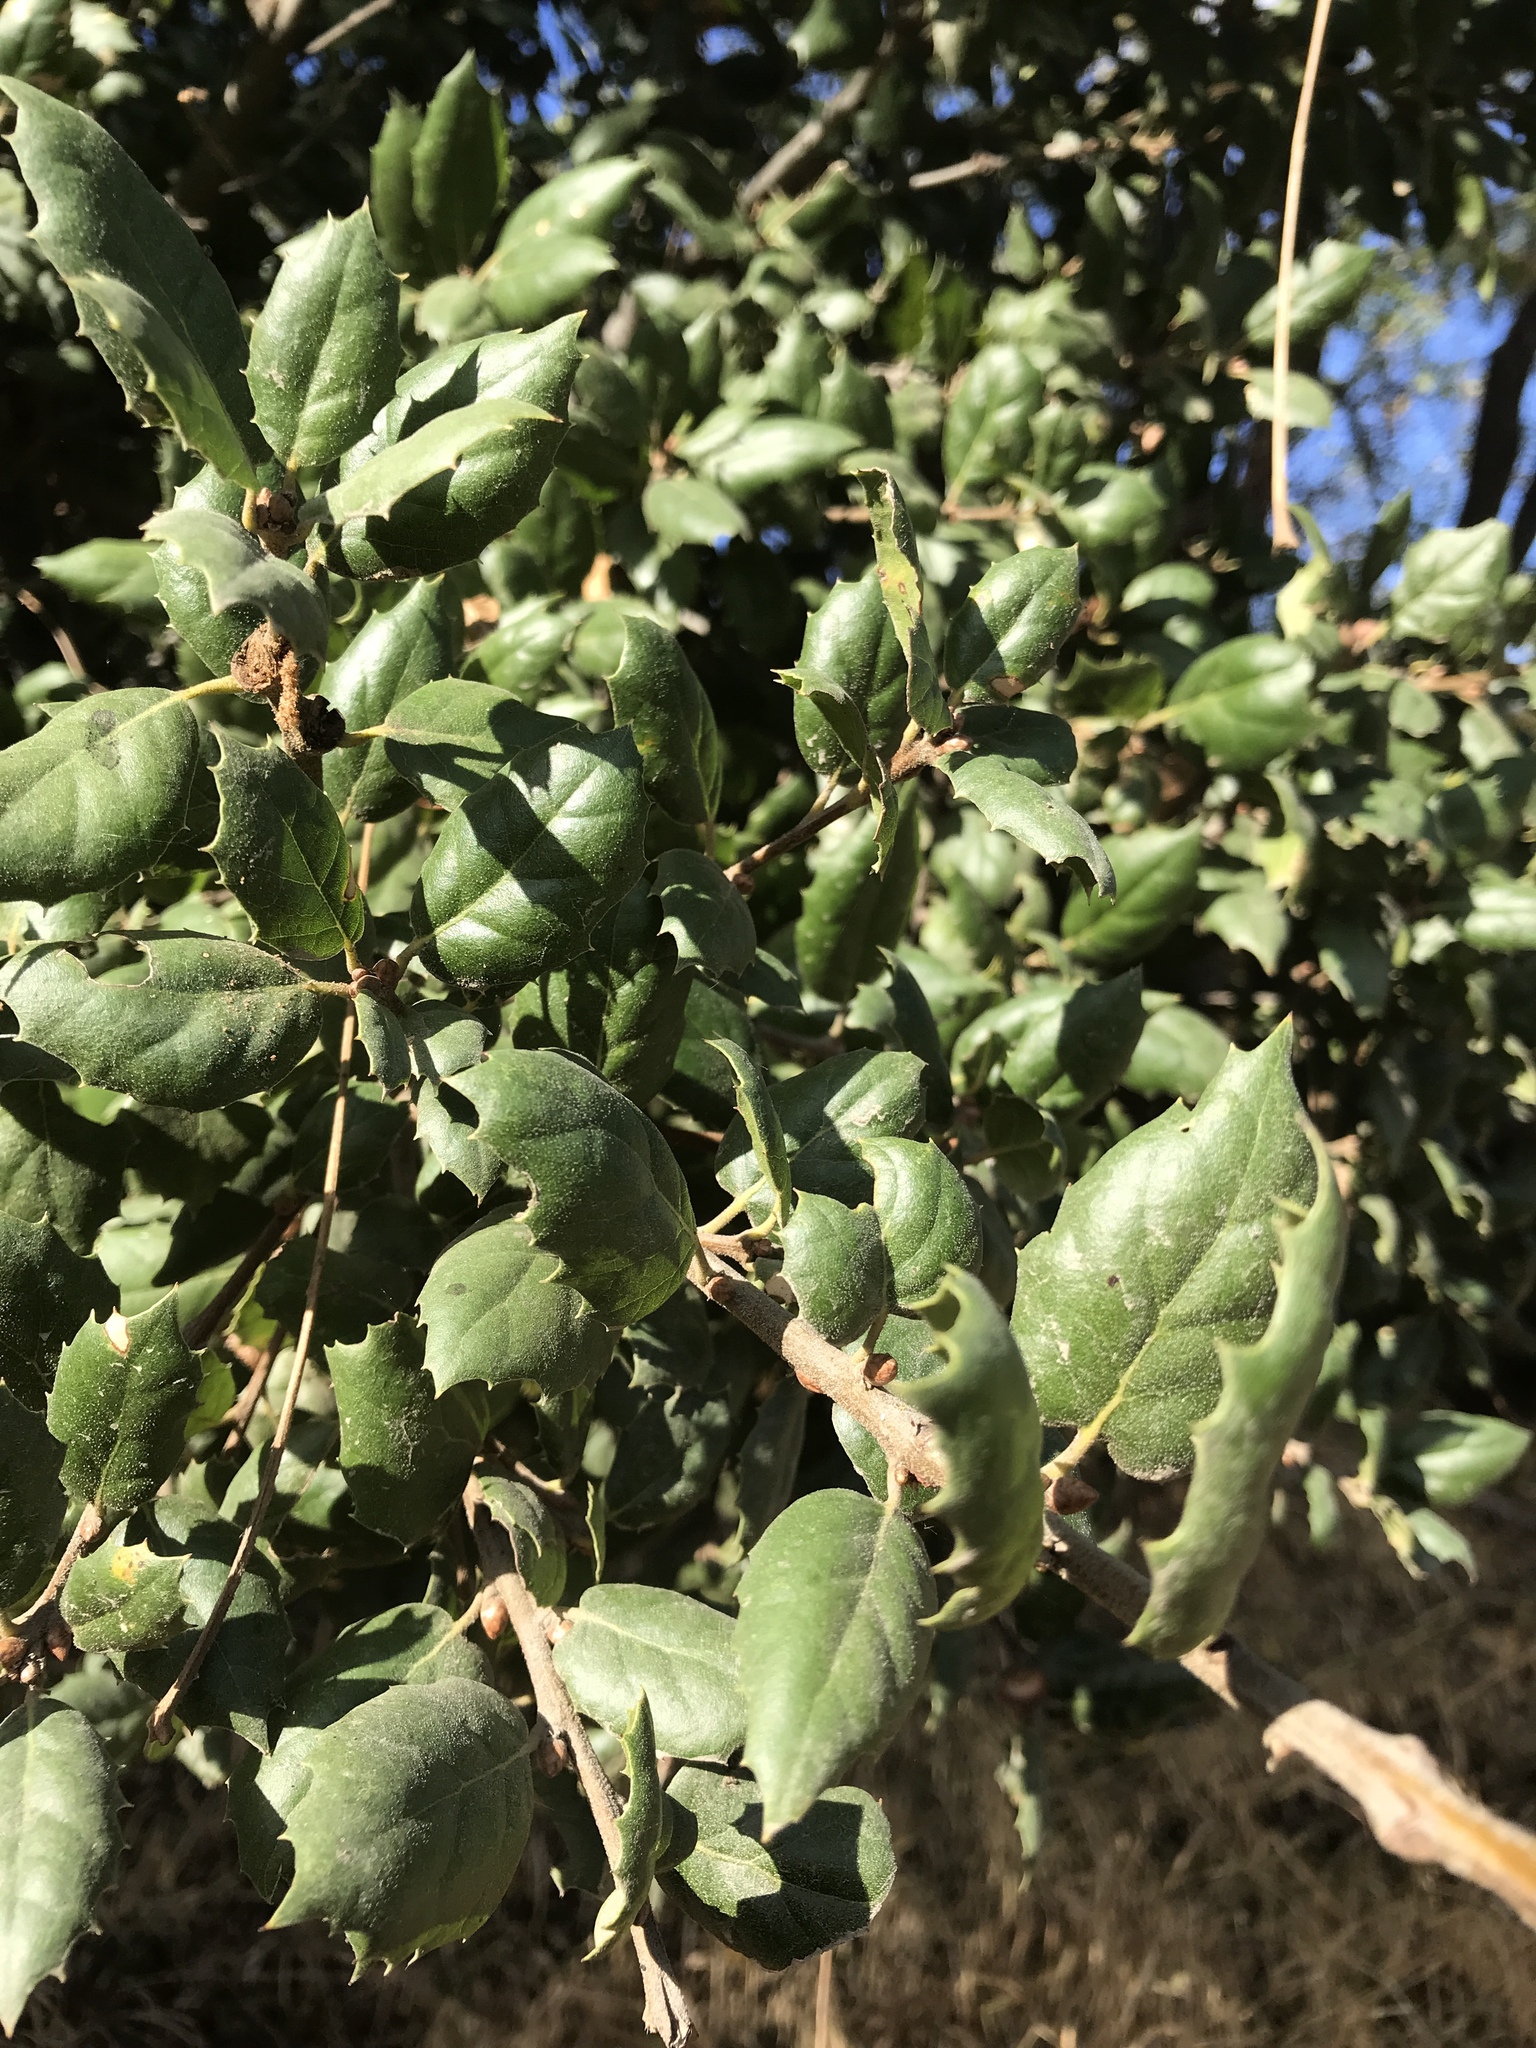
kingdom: Plantae
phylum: Tracheophyta
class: Magnoliopsida
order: Fagales
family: Fagaceae
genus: Quercus
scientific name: Quercus agrifolia
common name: California live oak
